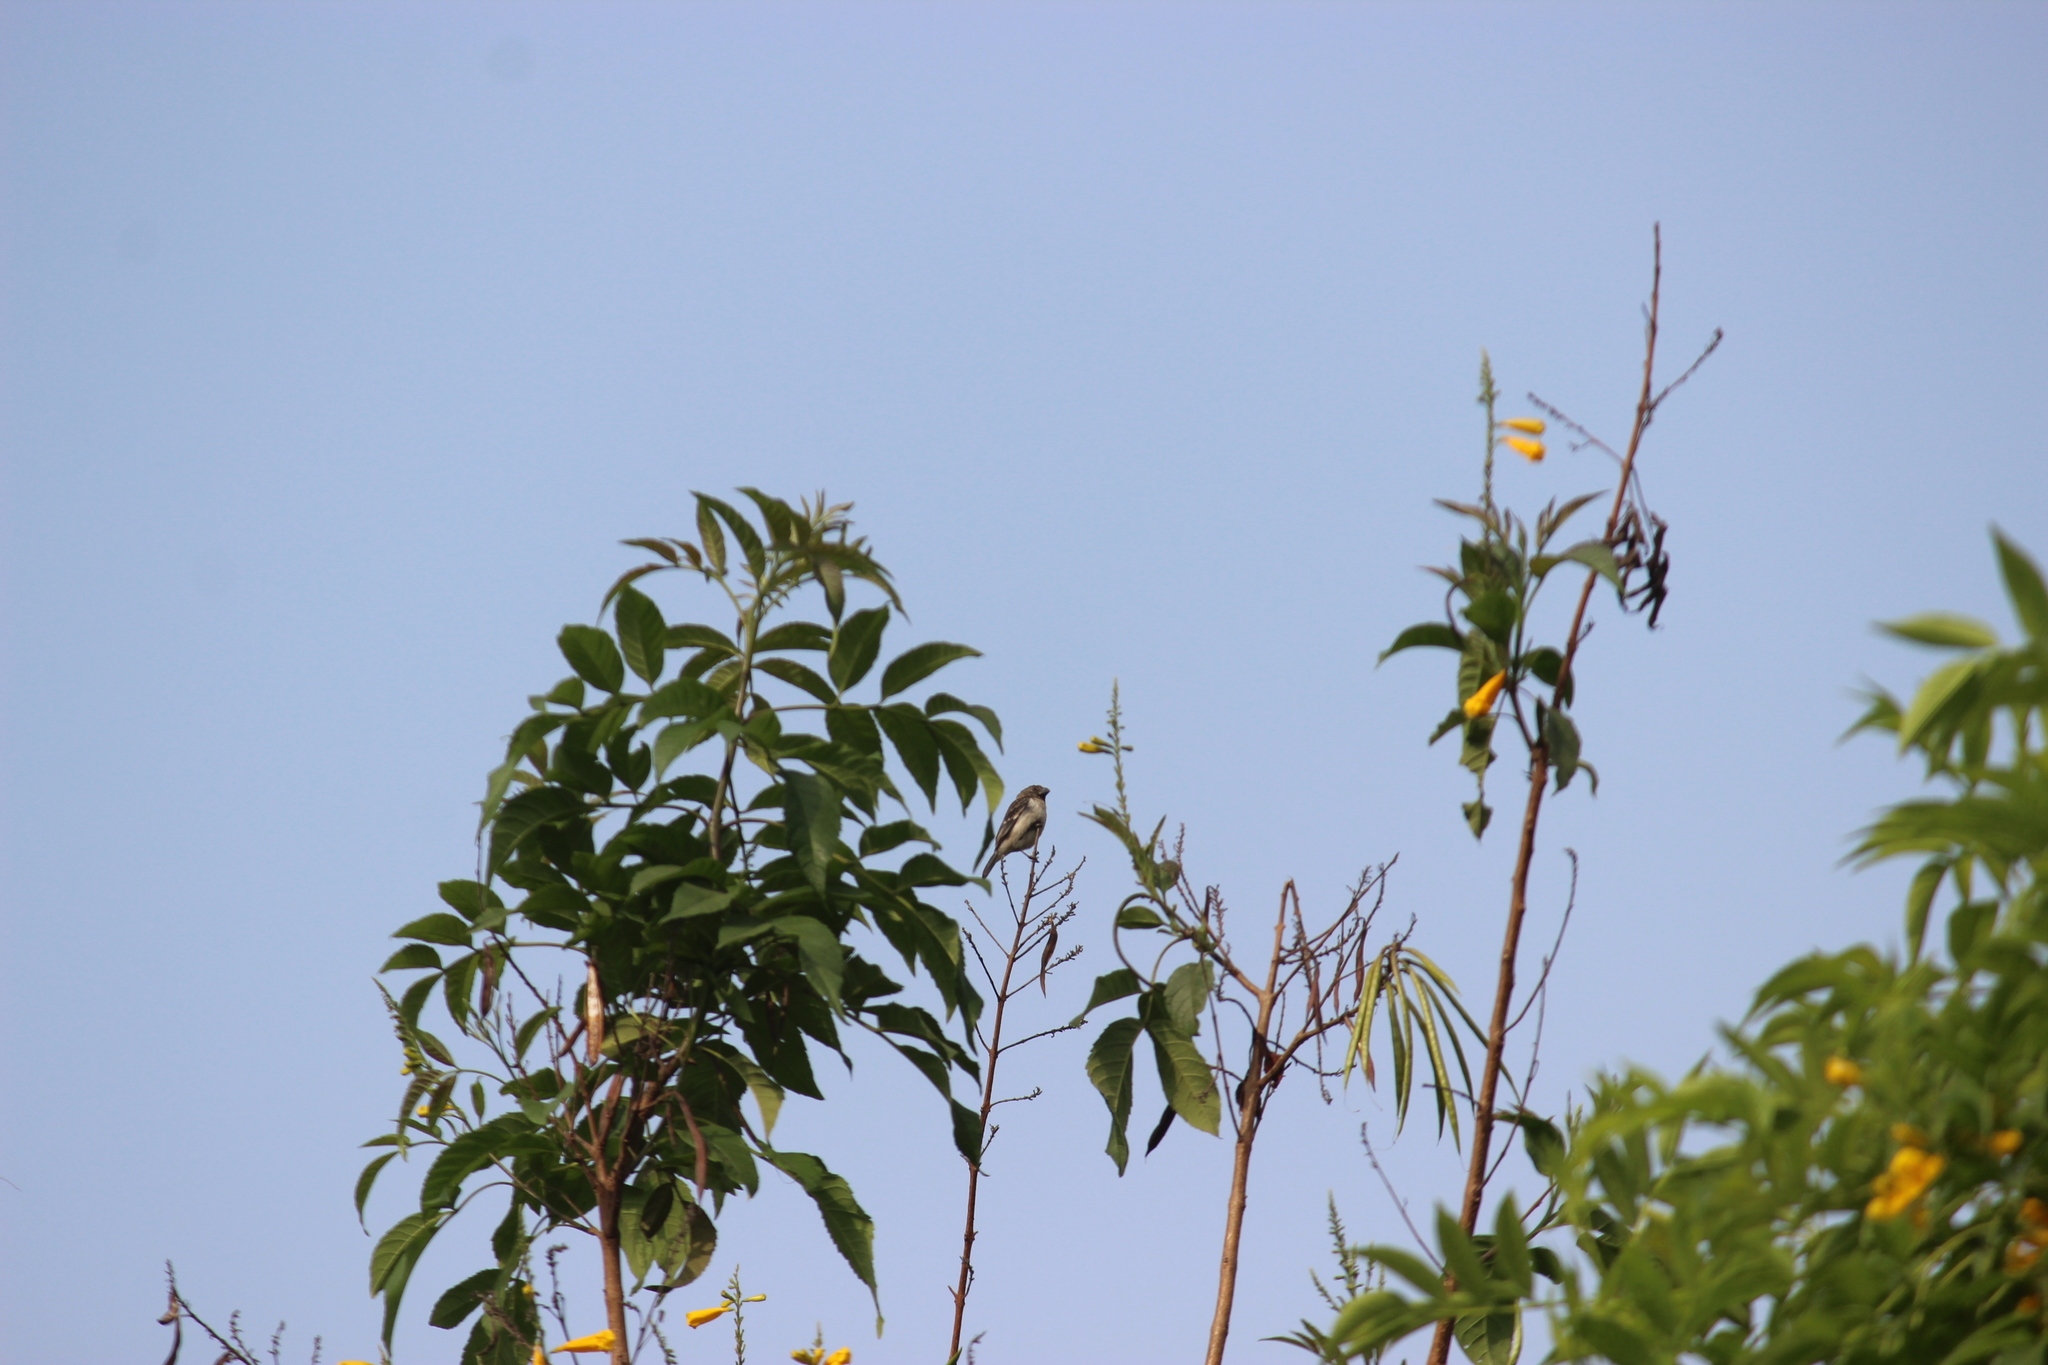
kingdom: Animalia
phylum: Chordata
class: Aves
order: Passeriformes
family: Thraupidae
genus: Sporophila
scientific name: Sporophila telasco
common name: Chestnut-throated seedeater
